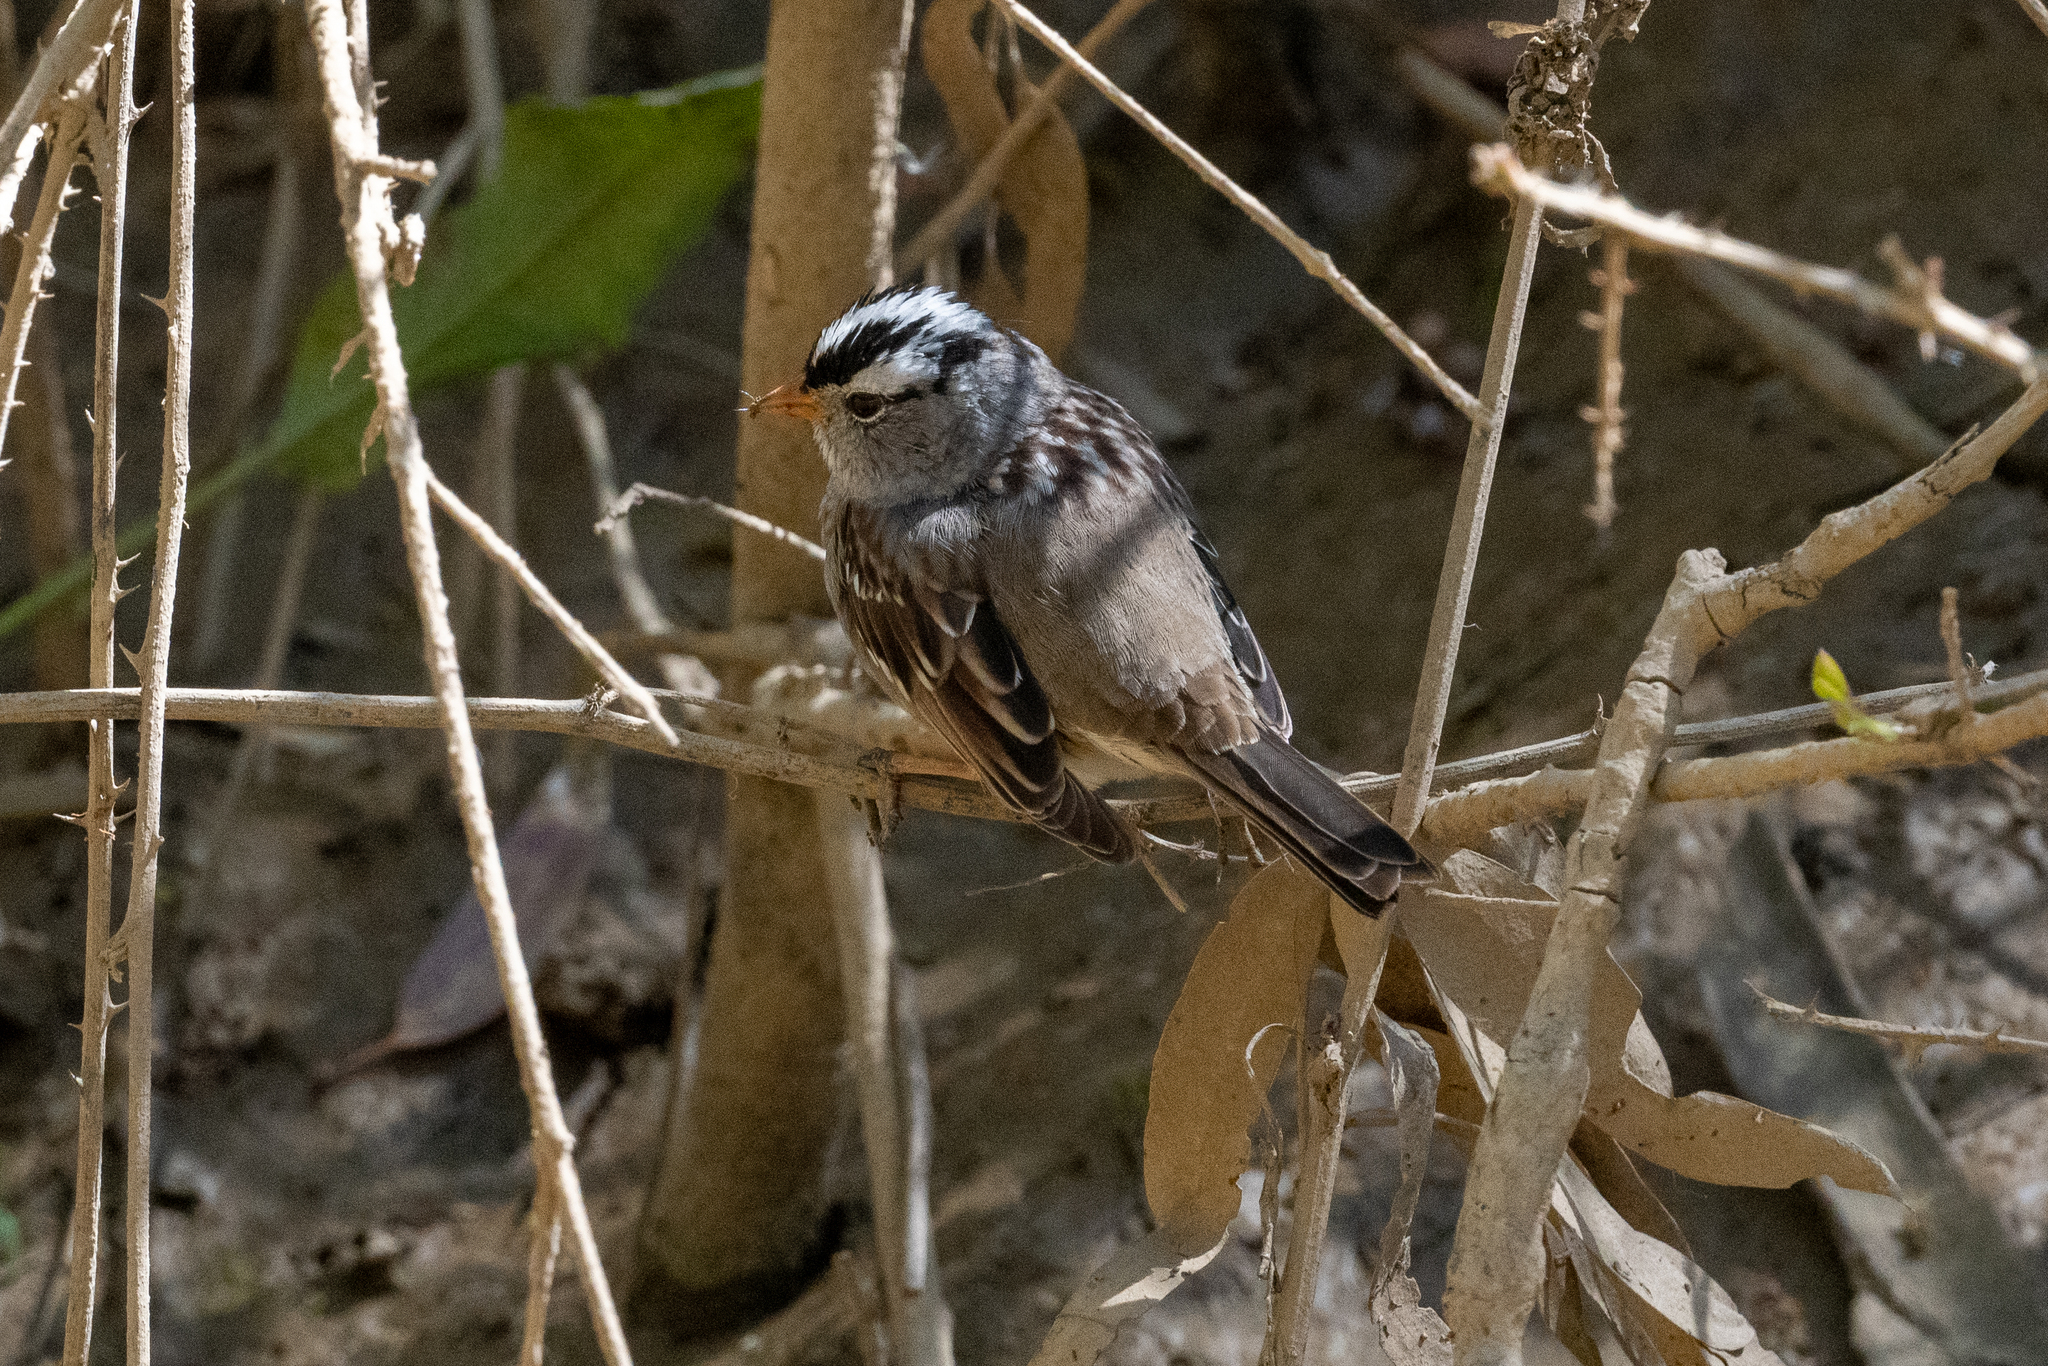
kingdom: Animalia
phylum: Chordata
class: Aves
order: Passeriformes
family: Passerellidae
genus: Zonotrichia
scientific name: Zonotrichia leucophrys
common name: White-crowned sparrow
